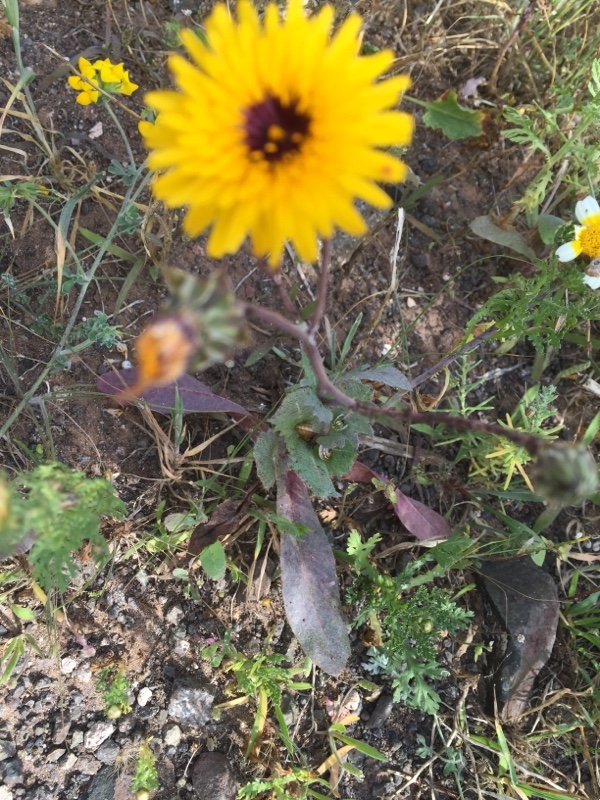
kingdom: Plantae
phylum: Tracheophyta
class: Magnoliopsida
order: Asterales
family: Asteraceae
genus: Reichardia
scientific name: Reichardia tingitana
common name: Reichardia
